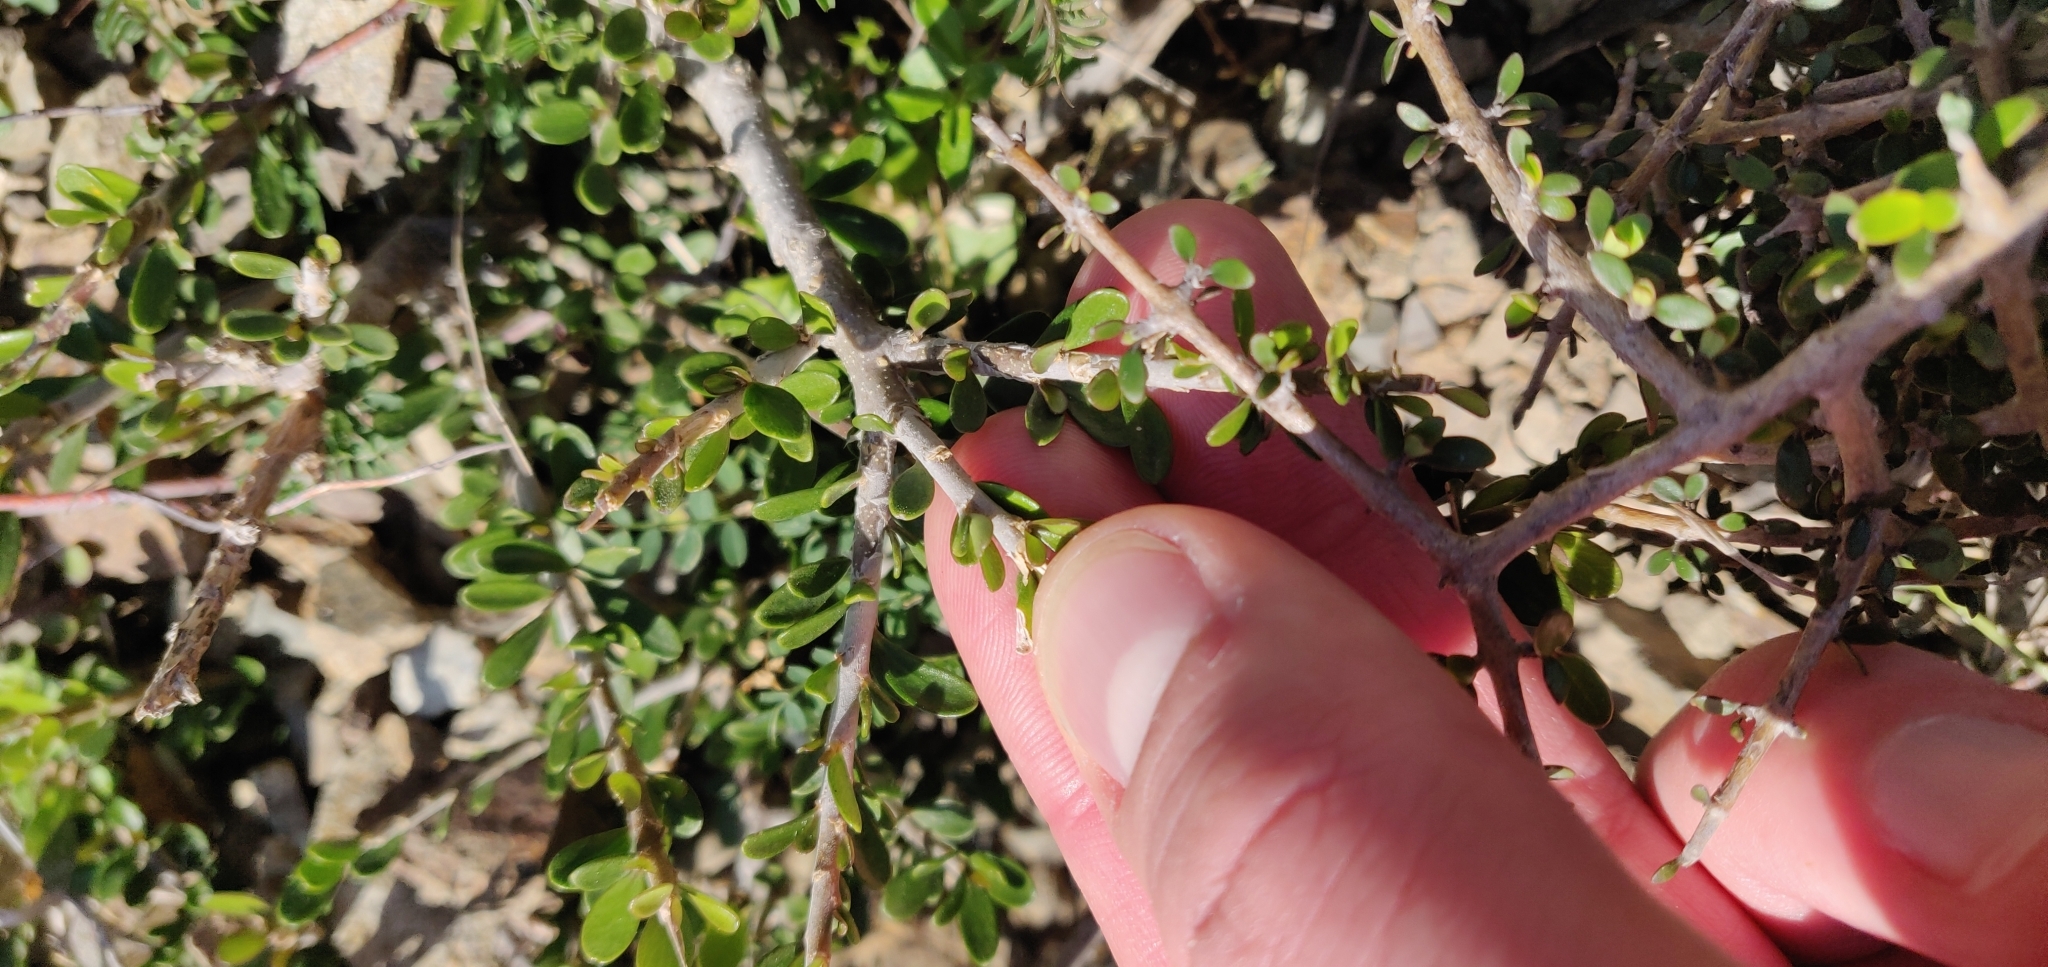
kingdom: Plantae
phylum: Tracheophyta
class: Magnoliopsida
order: Malpighiales
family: Violaceae
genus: Melicytus
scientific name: Melicytus crassifolius
